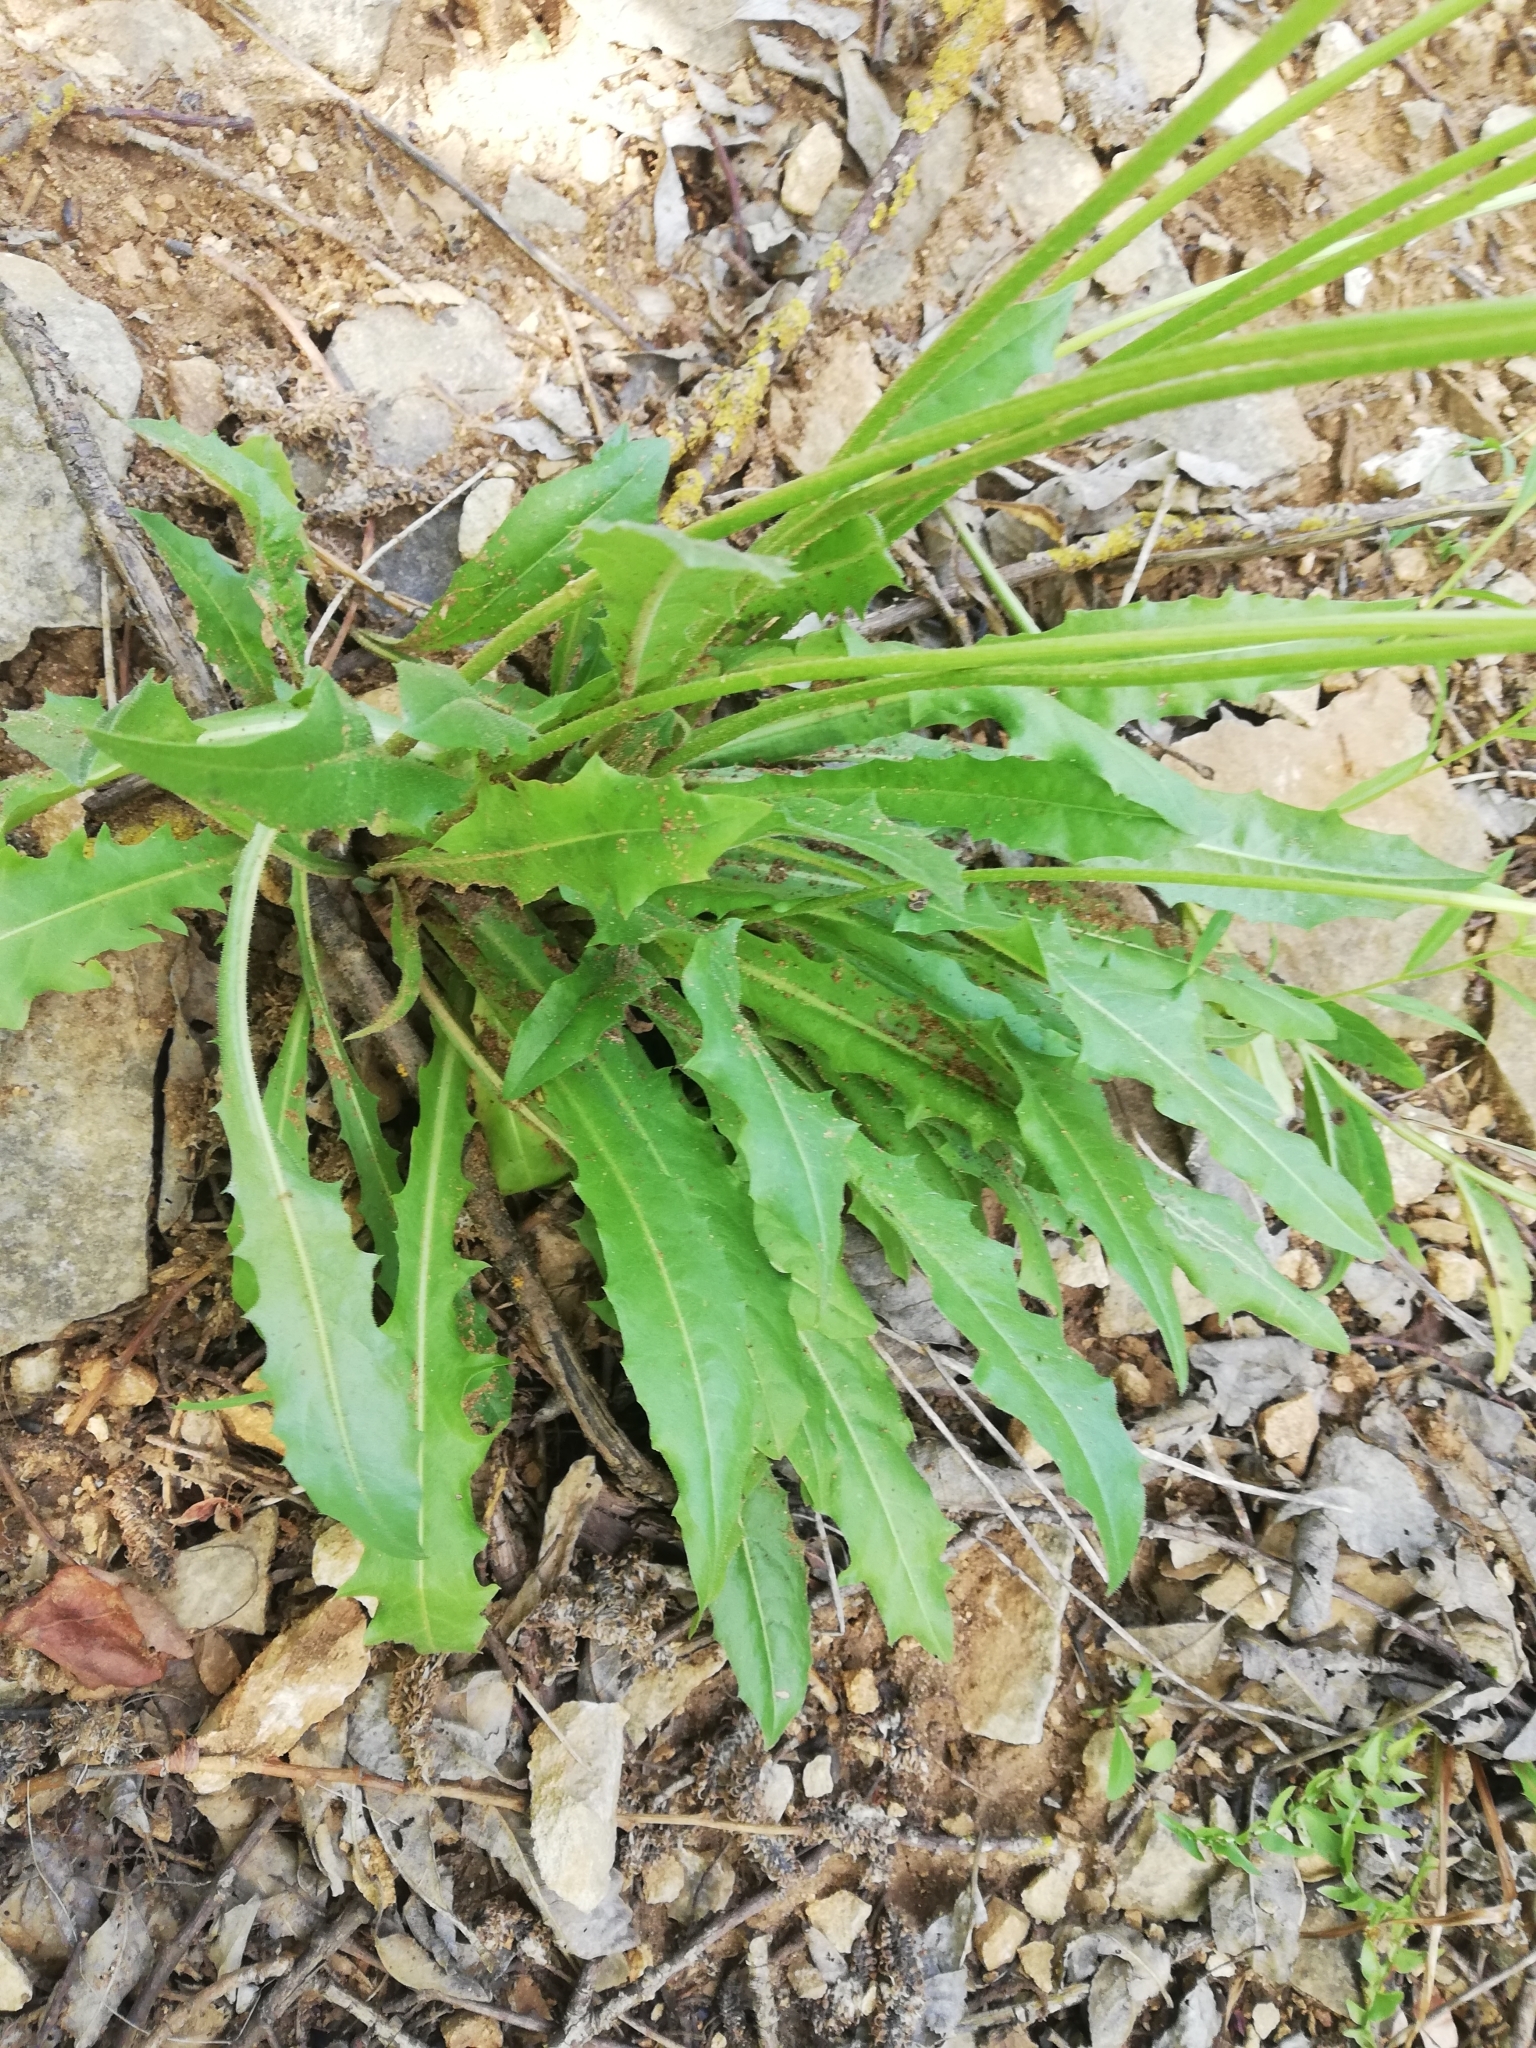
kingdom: Plantae
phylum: Tracheophyta
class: Magnoliopsida
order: Asterales
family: Asteraceae
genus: Leontodon
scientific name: Leontodon hispidus
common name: Rough hawkbit
